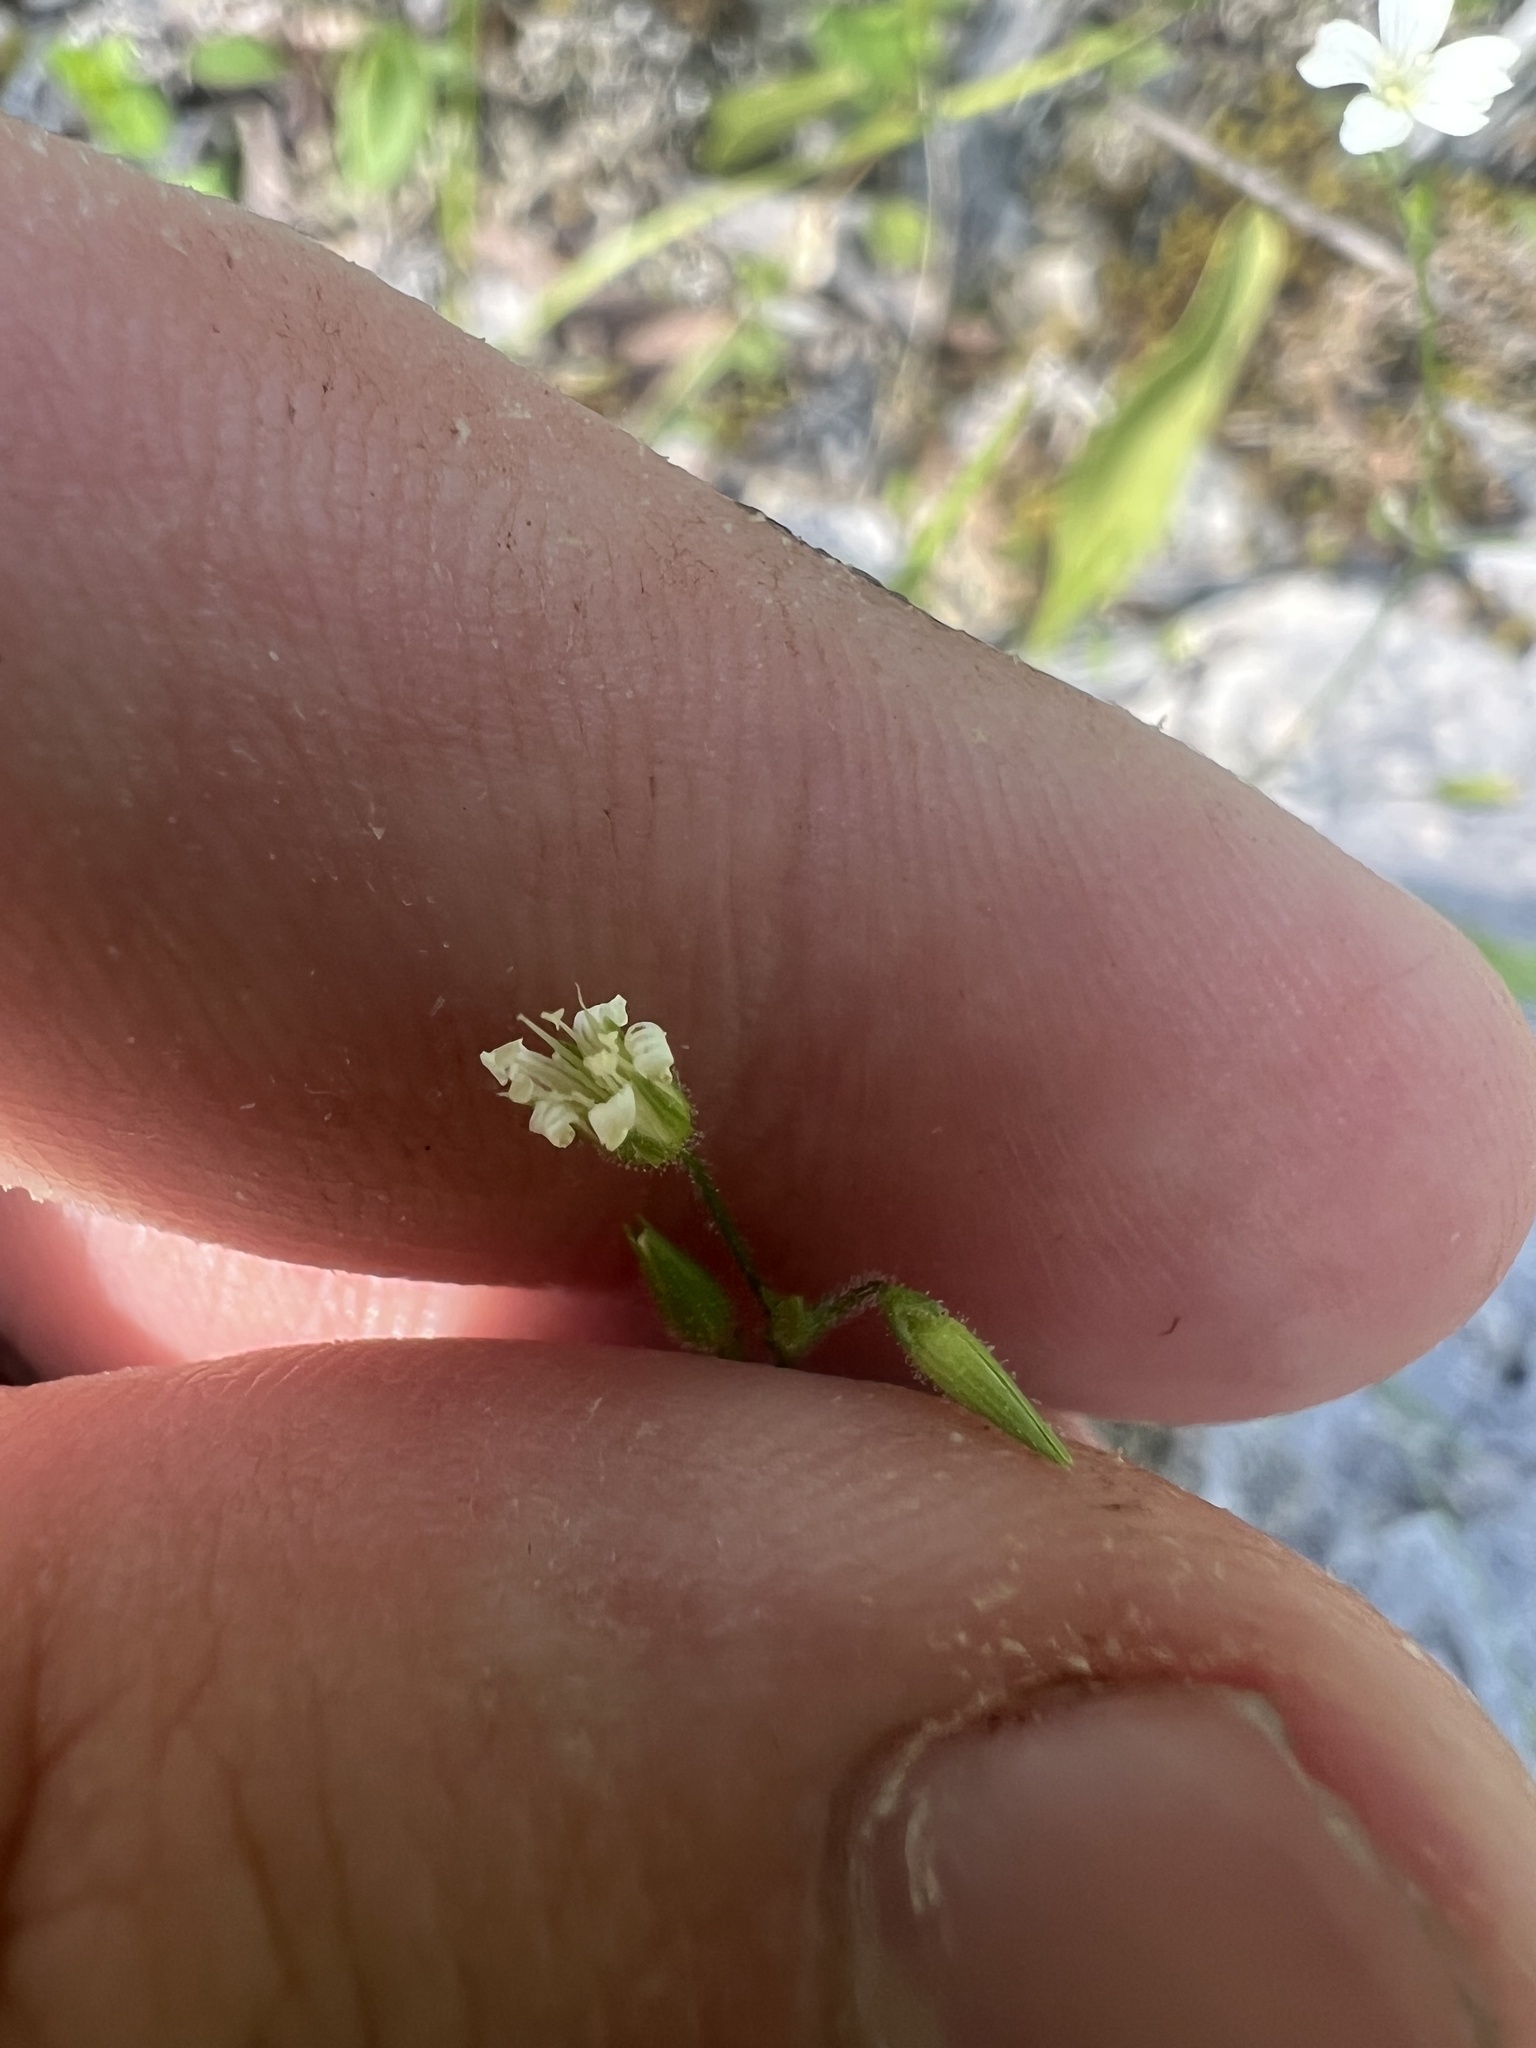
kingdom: Plantae
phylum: Tracheophyta
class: Magnoliopsida
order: Caryophyllales
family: Caryophyllaceae
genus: Mononeuria
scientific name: Mononeuria patula
